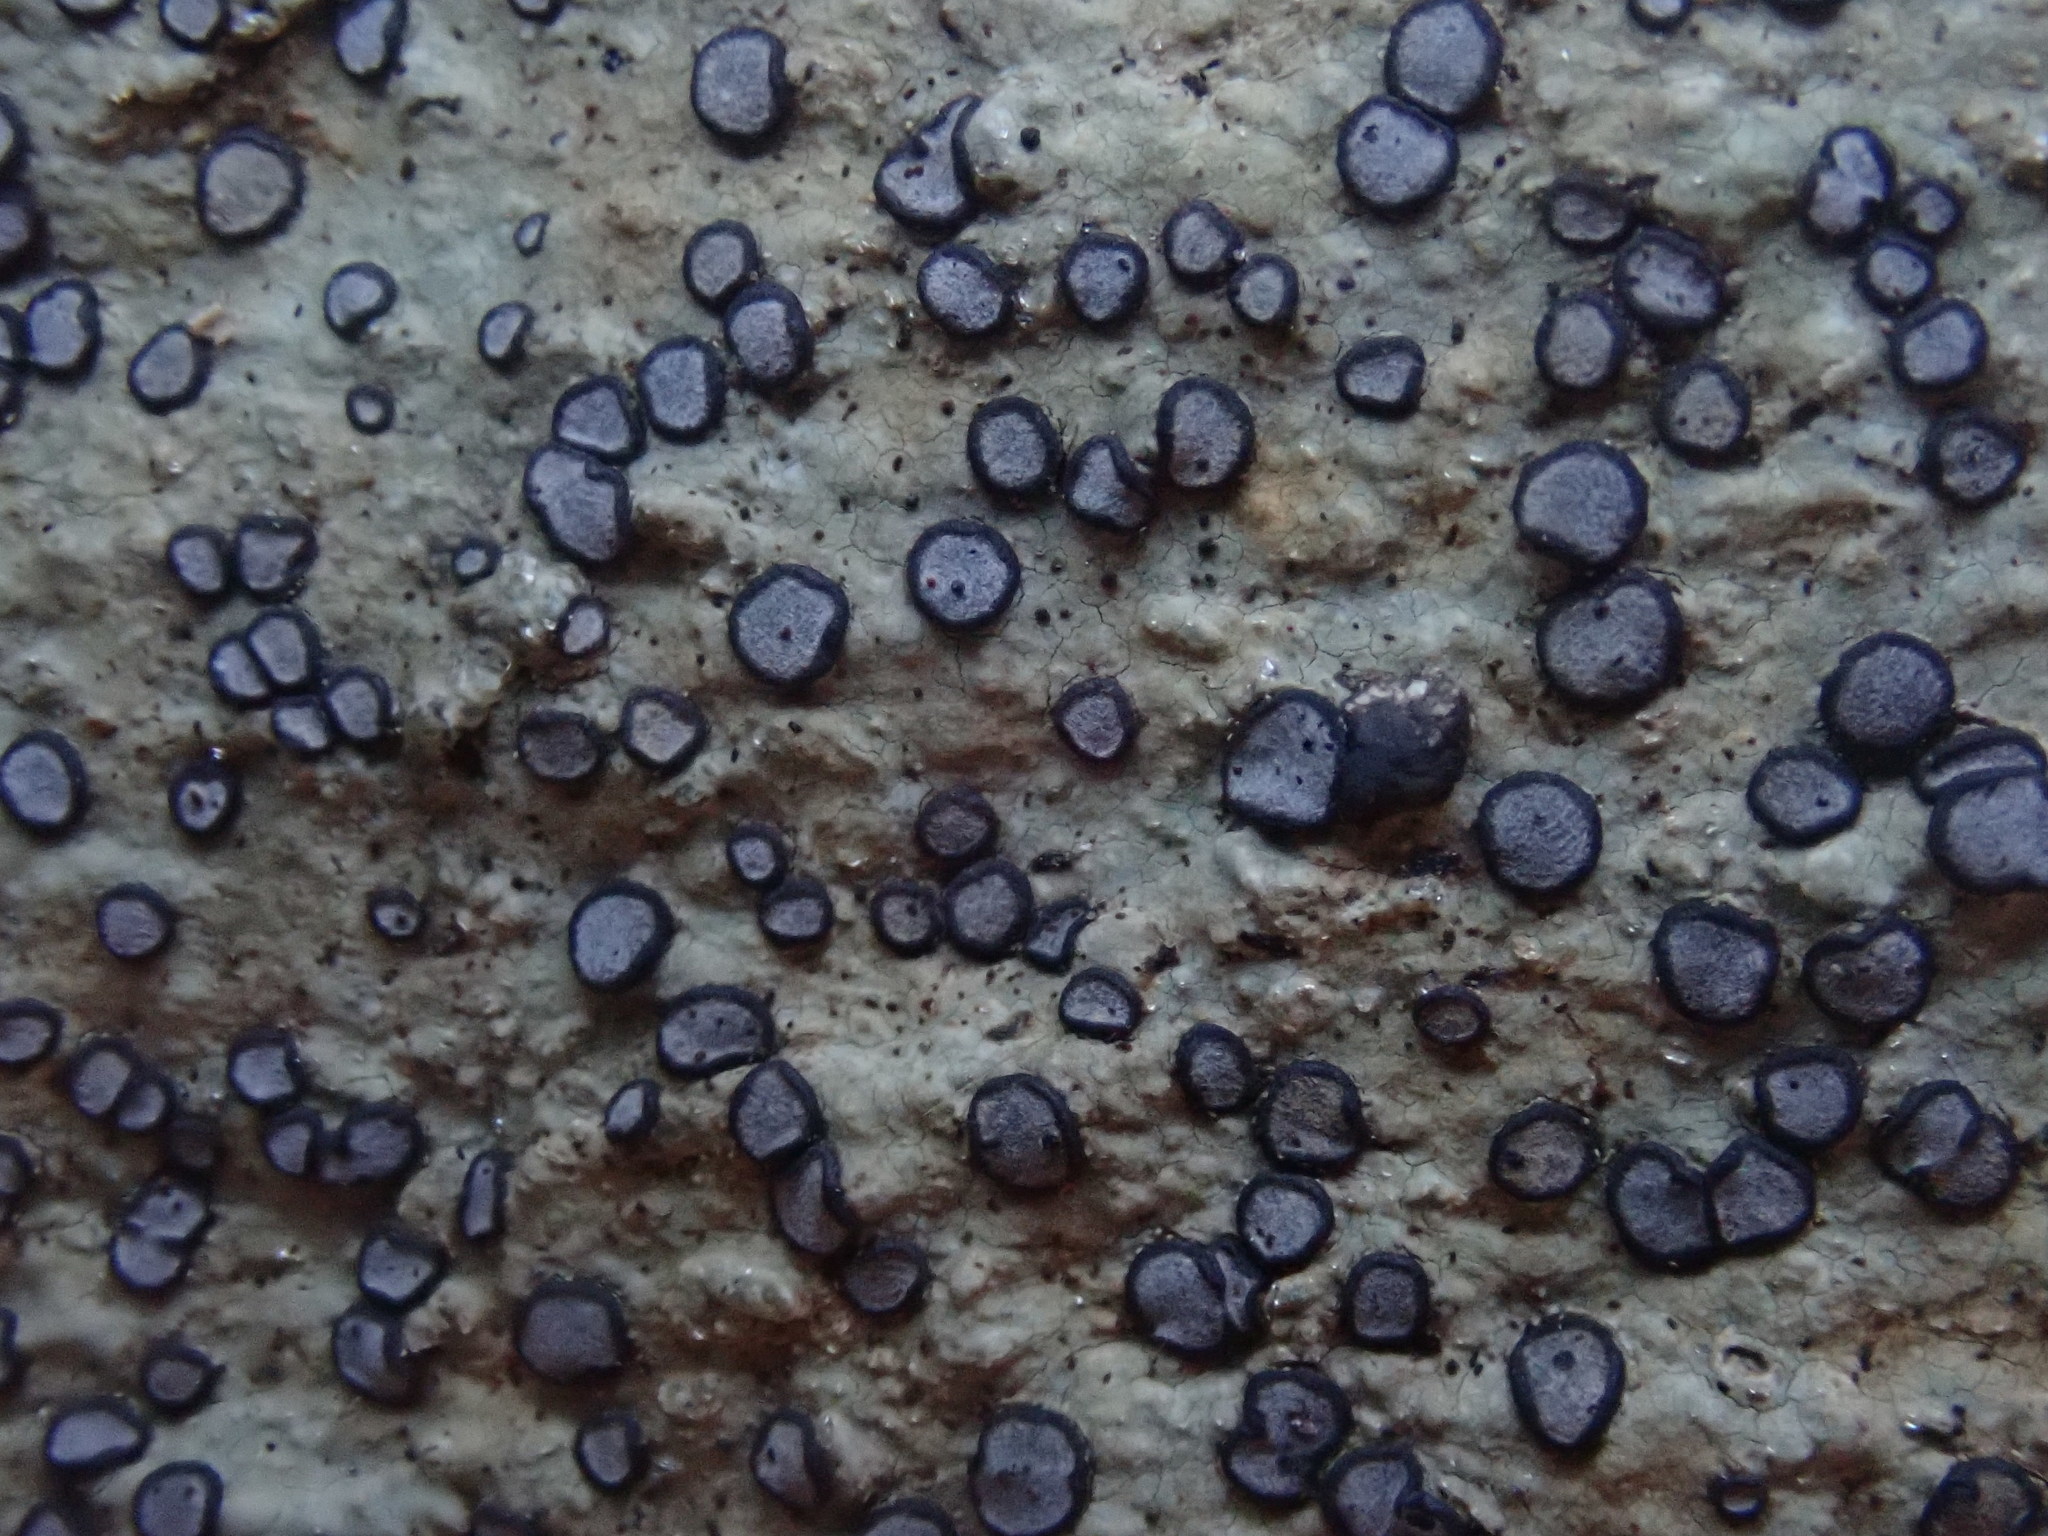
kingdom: Fungi
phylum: Ascomycota
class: Lecanoromycetes
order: Lecideales
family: Lecideaceae
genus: Porpidia
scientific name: Porpidia albocaerulescens
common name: Smokey-eyed boulder lichen
